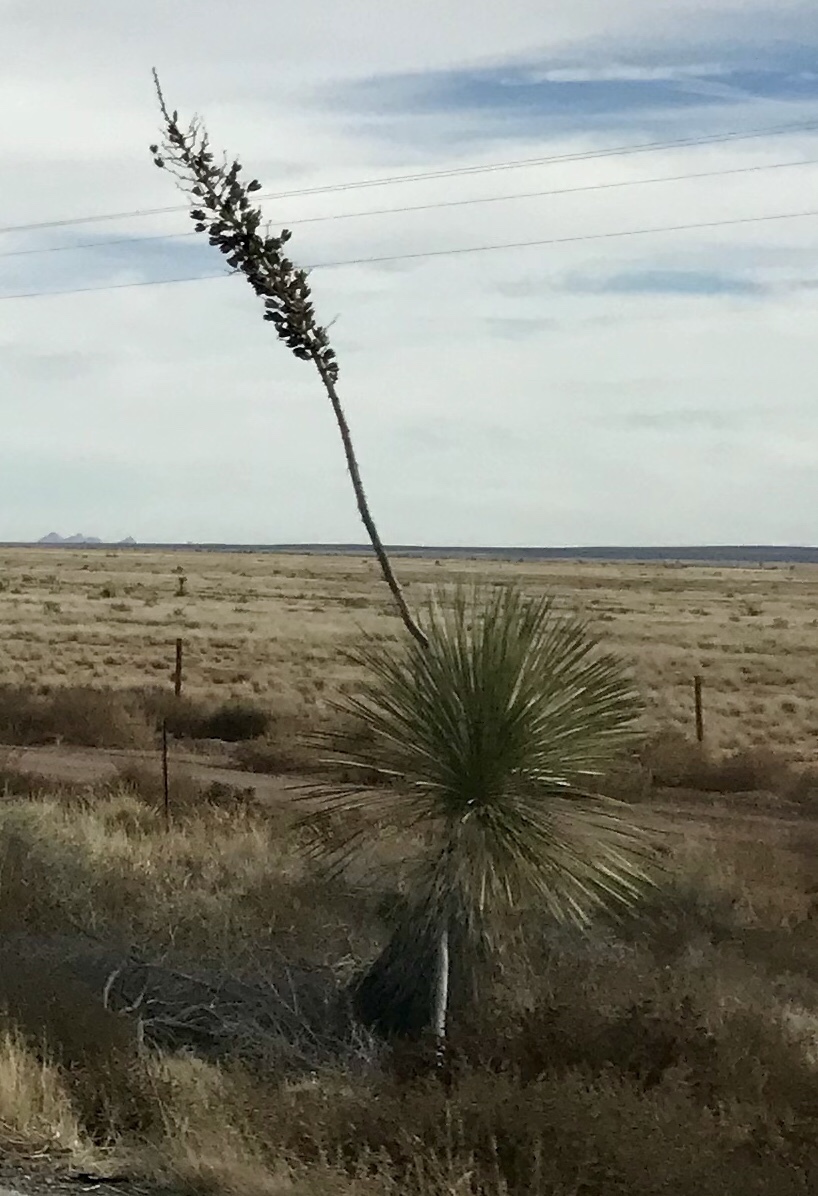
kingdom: Plantae
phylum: Tracheophyta
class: Liliopsida
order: Asparagales
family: Asparagaceae
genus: Yucca
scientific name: Yucca elata
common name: Palmella
